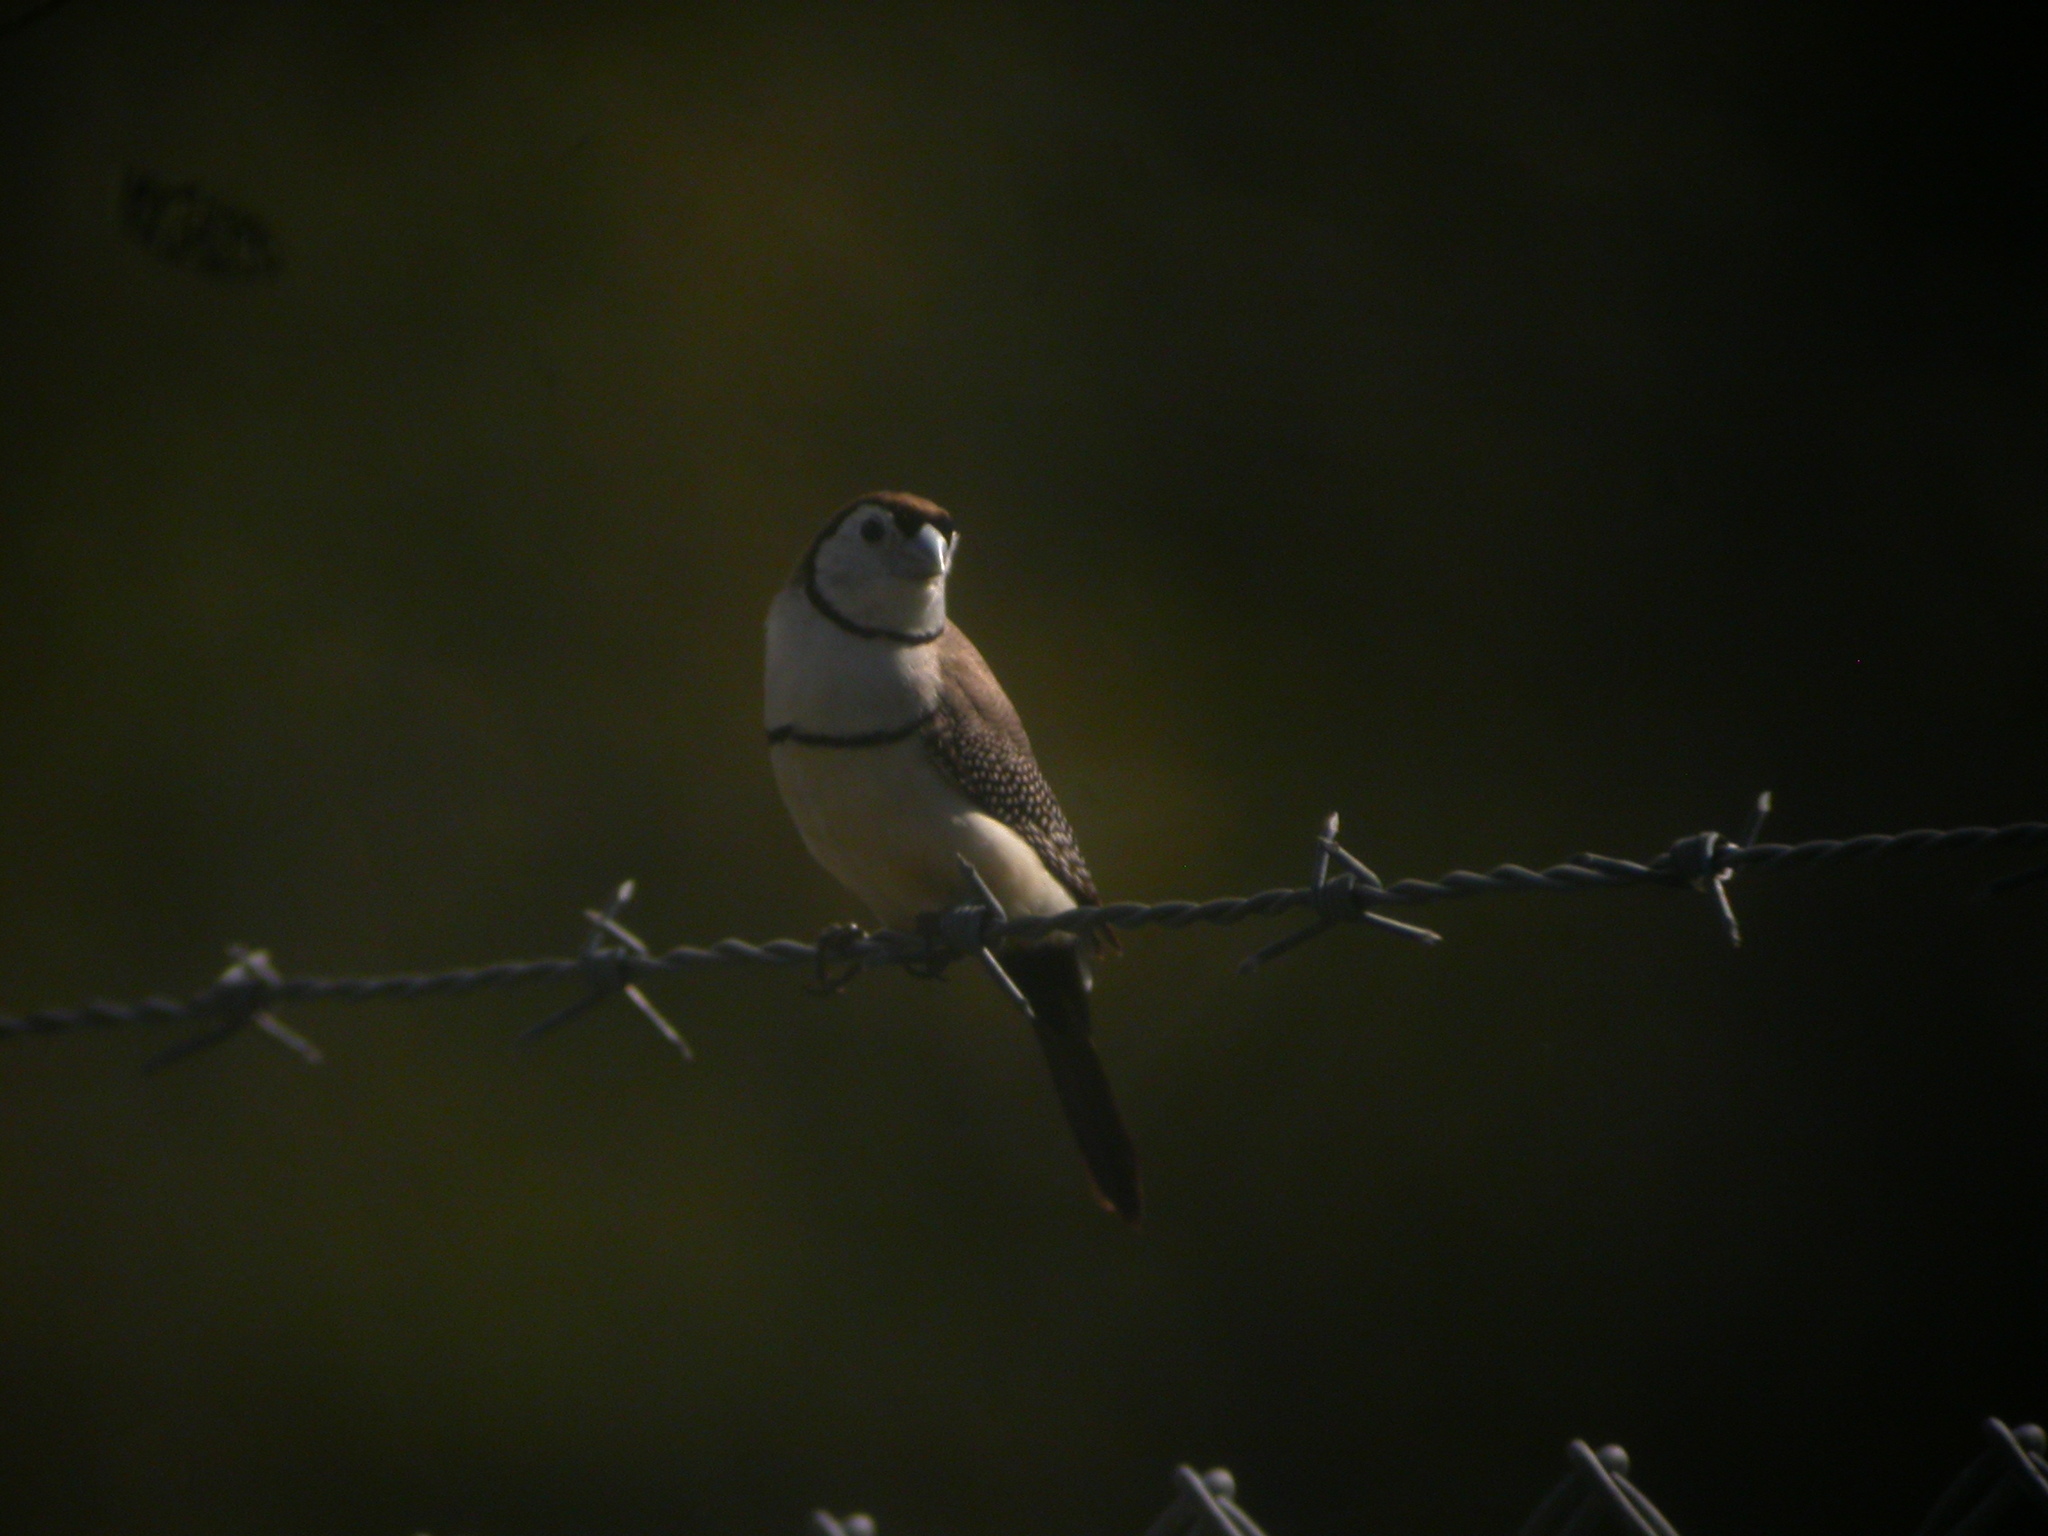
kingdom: Animalia
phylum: Chordata
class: Aves
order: Passeriformes
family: Estrildidae
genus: Taeniopygia
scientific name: Taeniopygia bichenovii
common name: Double-barred finch
